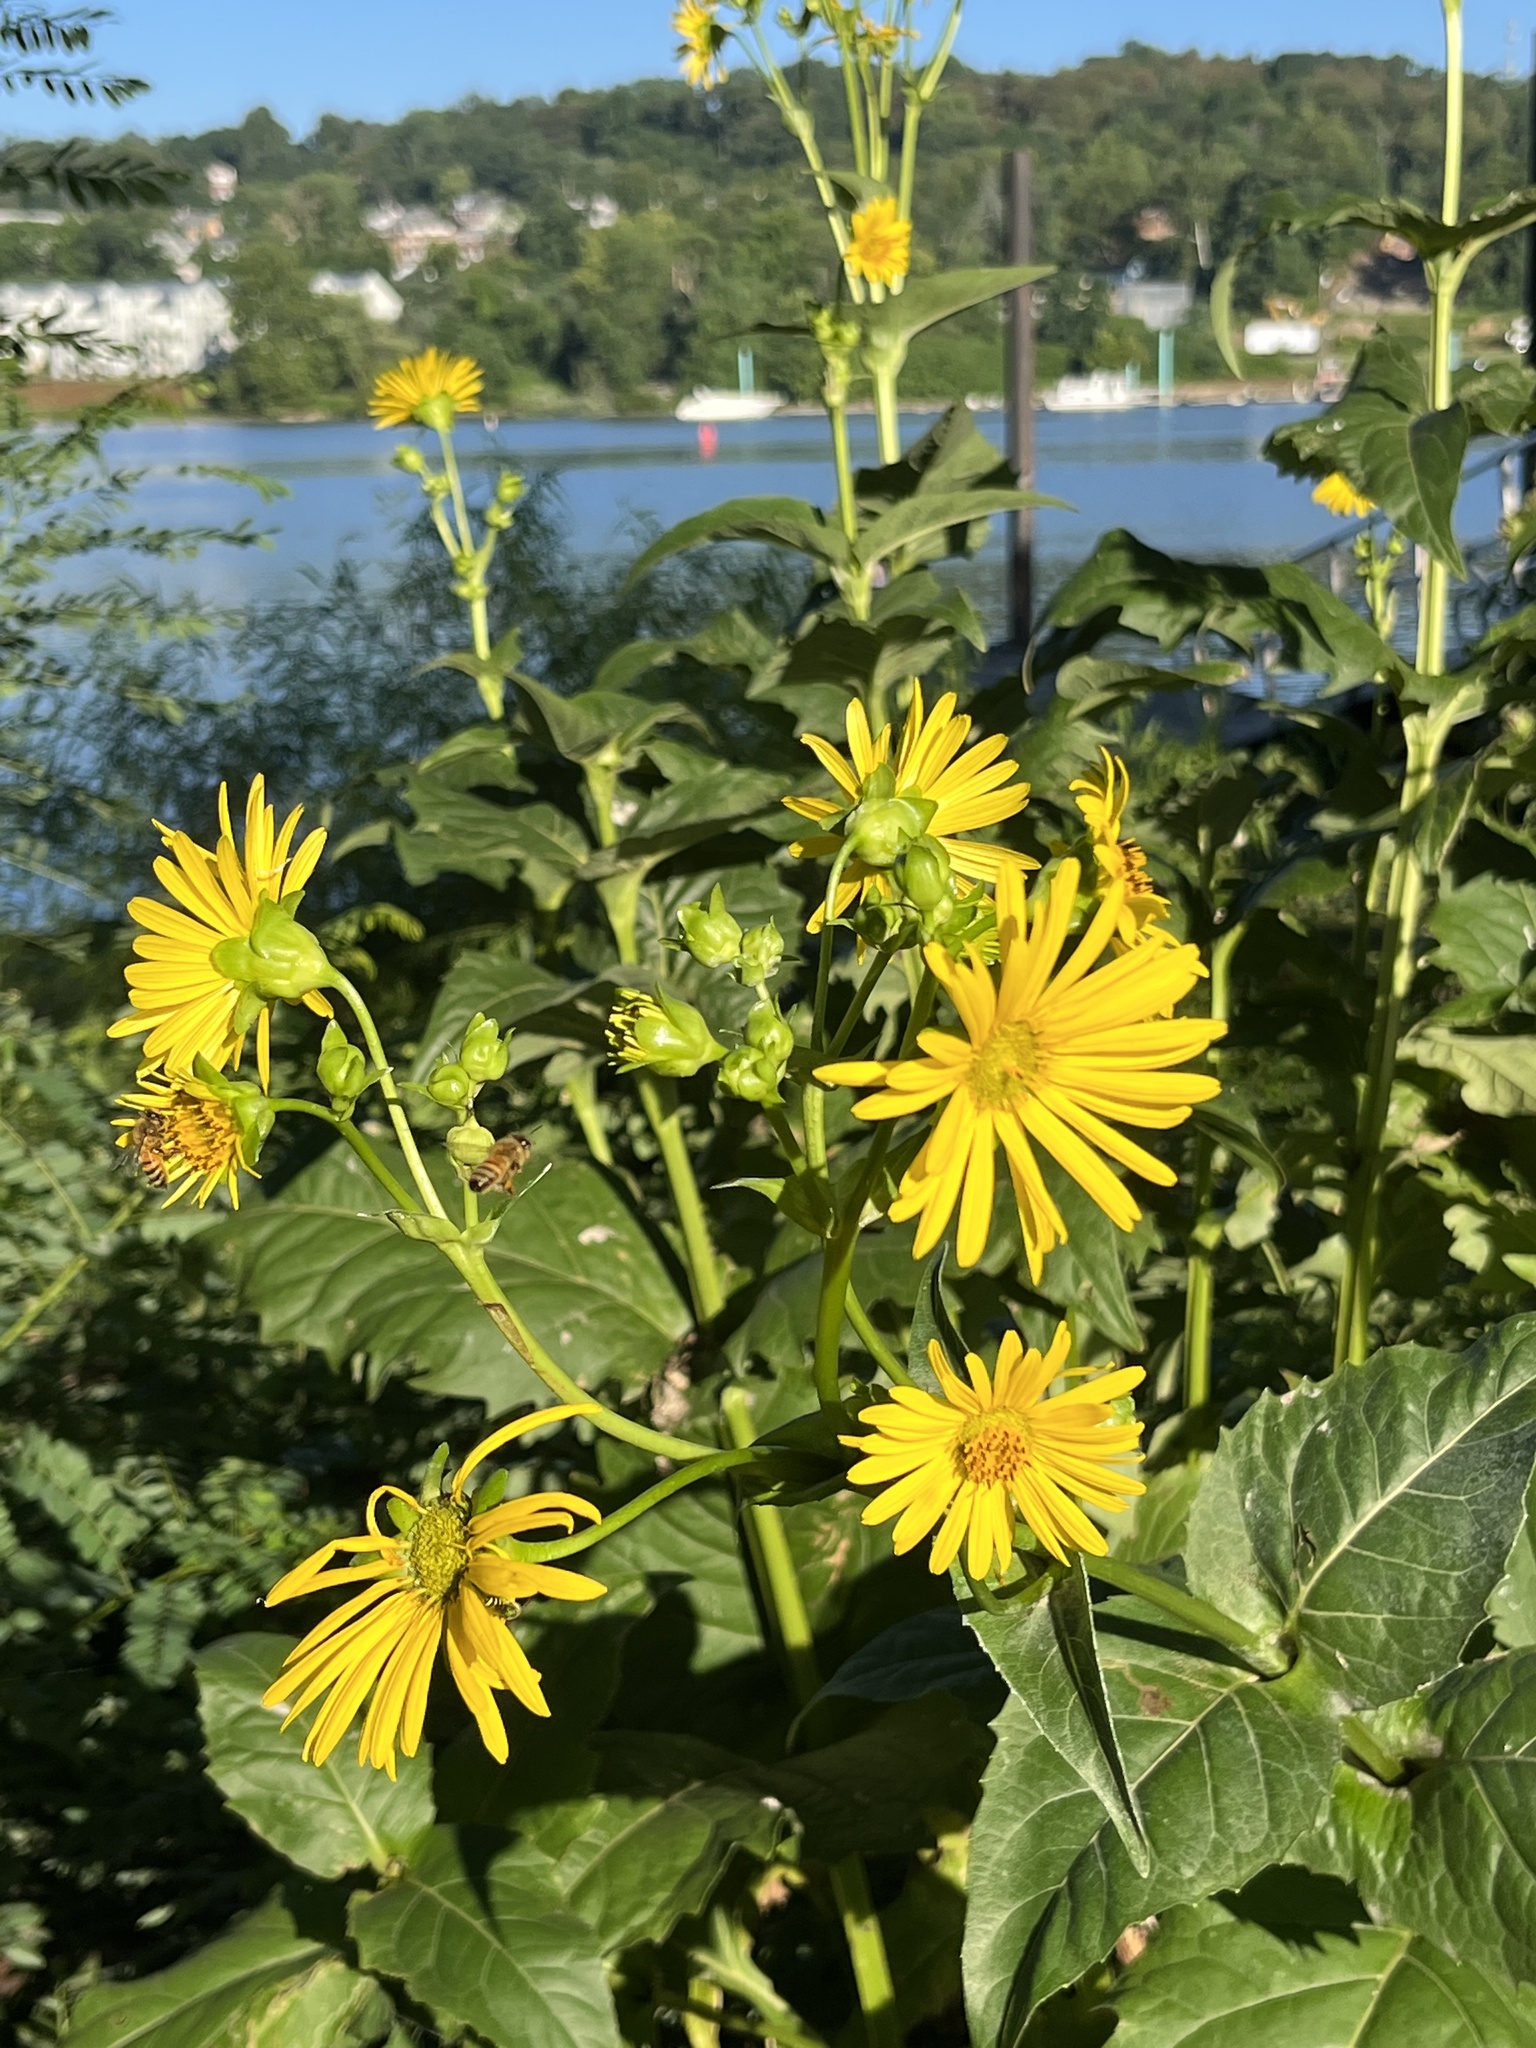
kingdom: Plantae
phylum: Tracheophyta
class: Magnoliopsida
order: Asterales
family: Asteraceae
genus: Silphium
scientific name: Silphium perfoliatum
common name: Cup-plant
